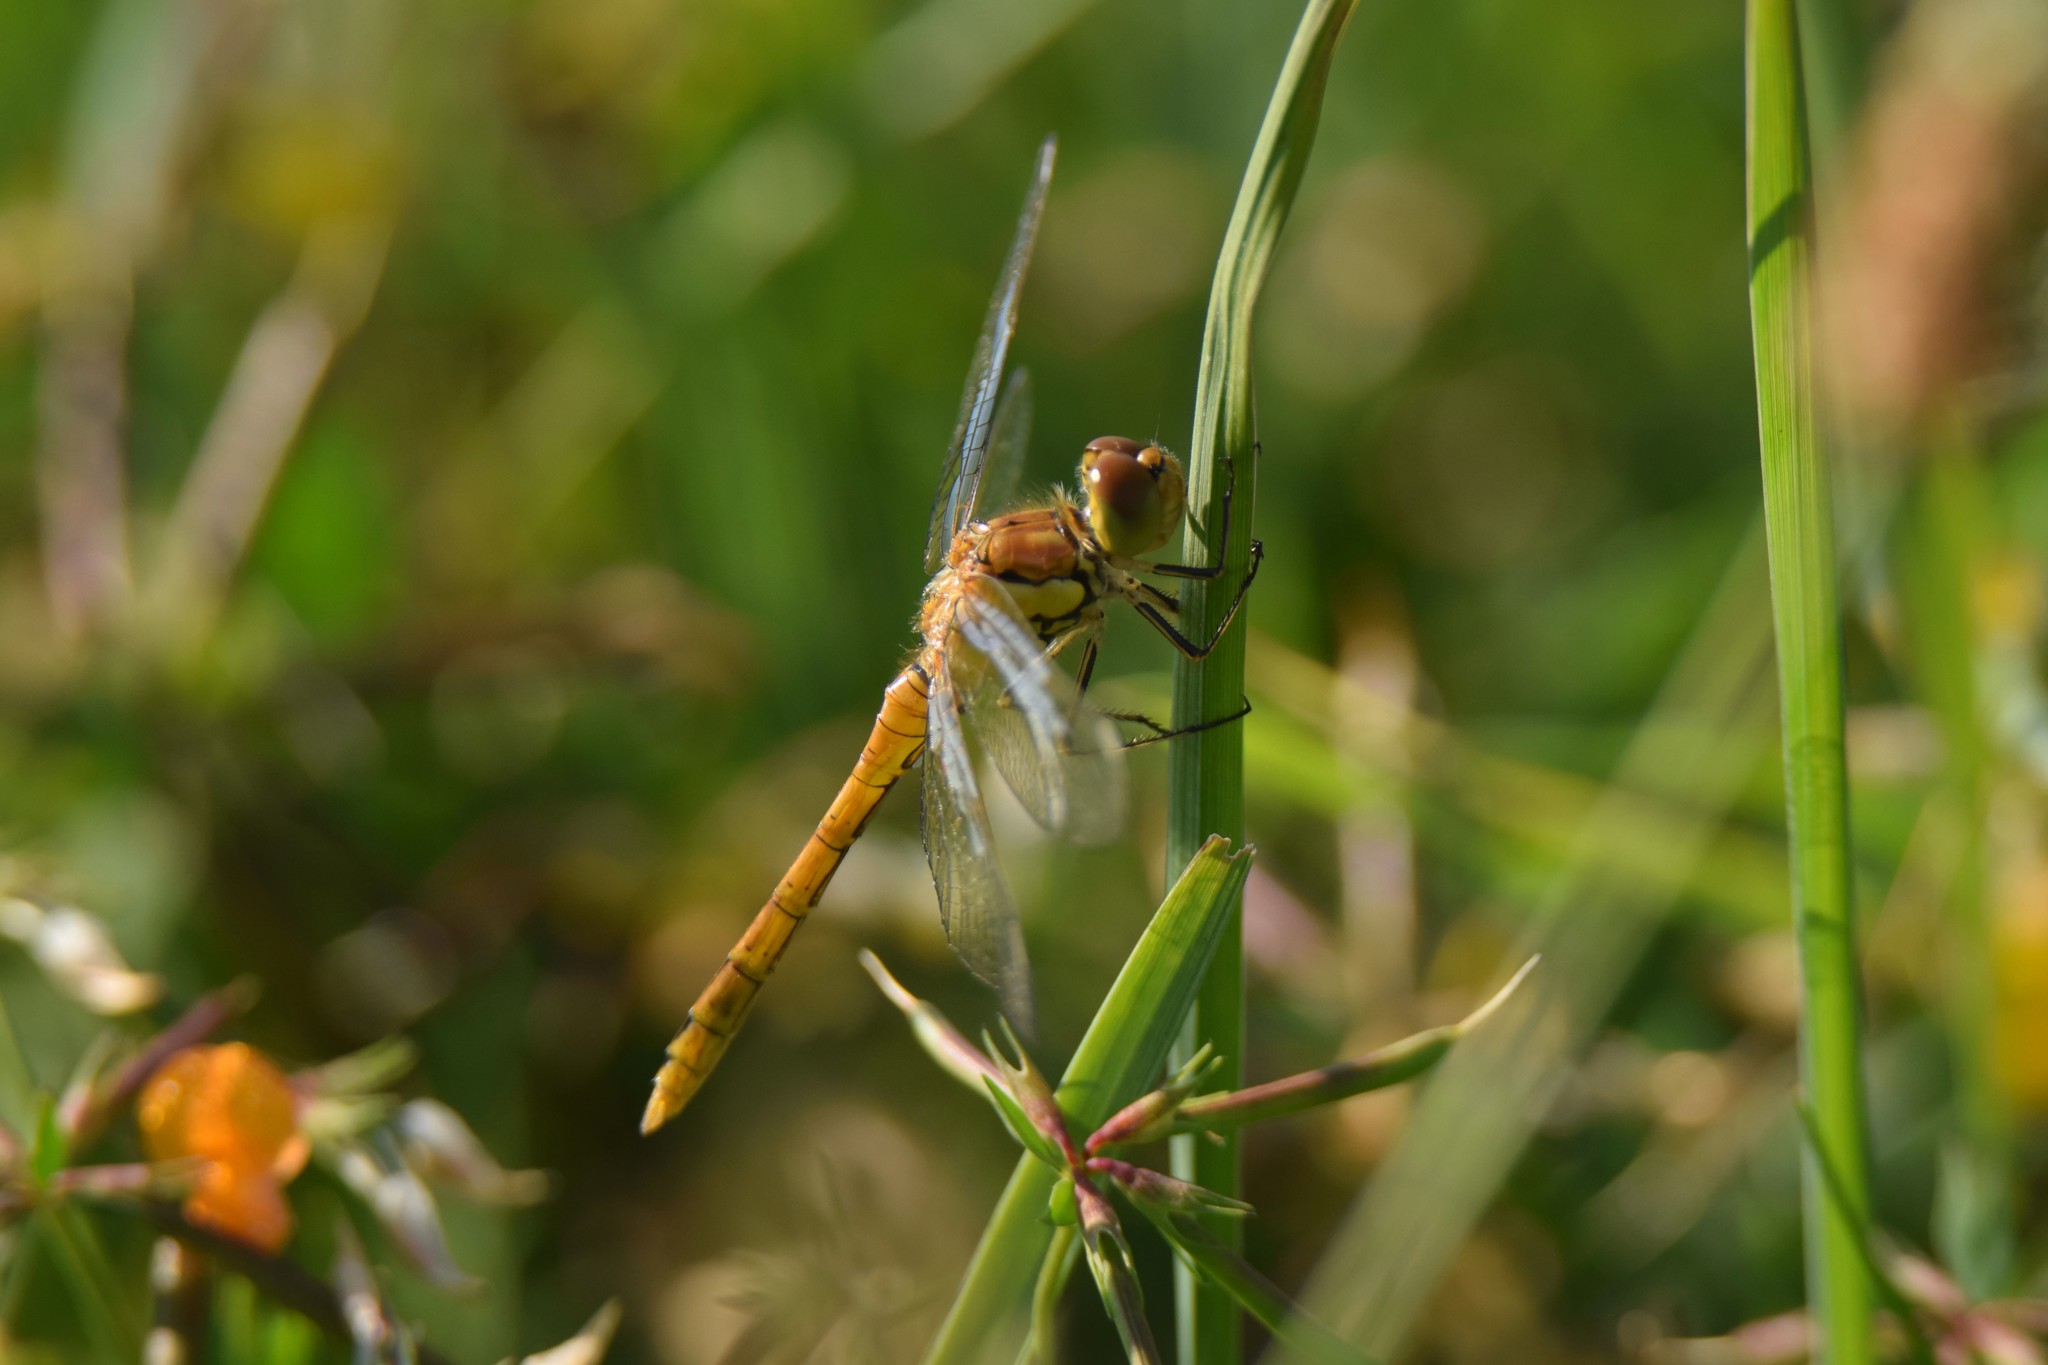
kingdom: Animalia
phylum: Arthropoda
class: Insecta
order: Odonata
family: Libellulidae
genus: Sympetrum
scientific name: Sympetrum striolatum
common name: Common darter
